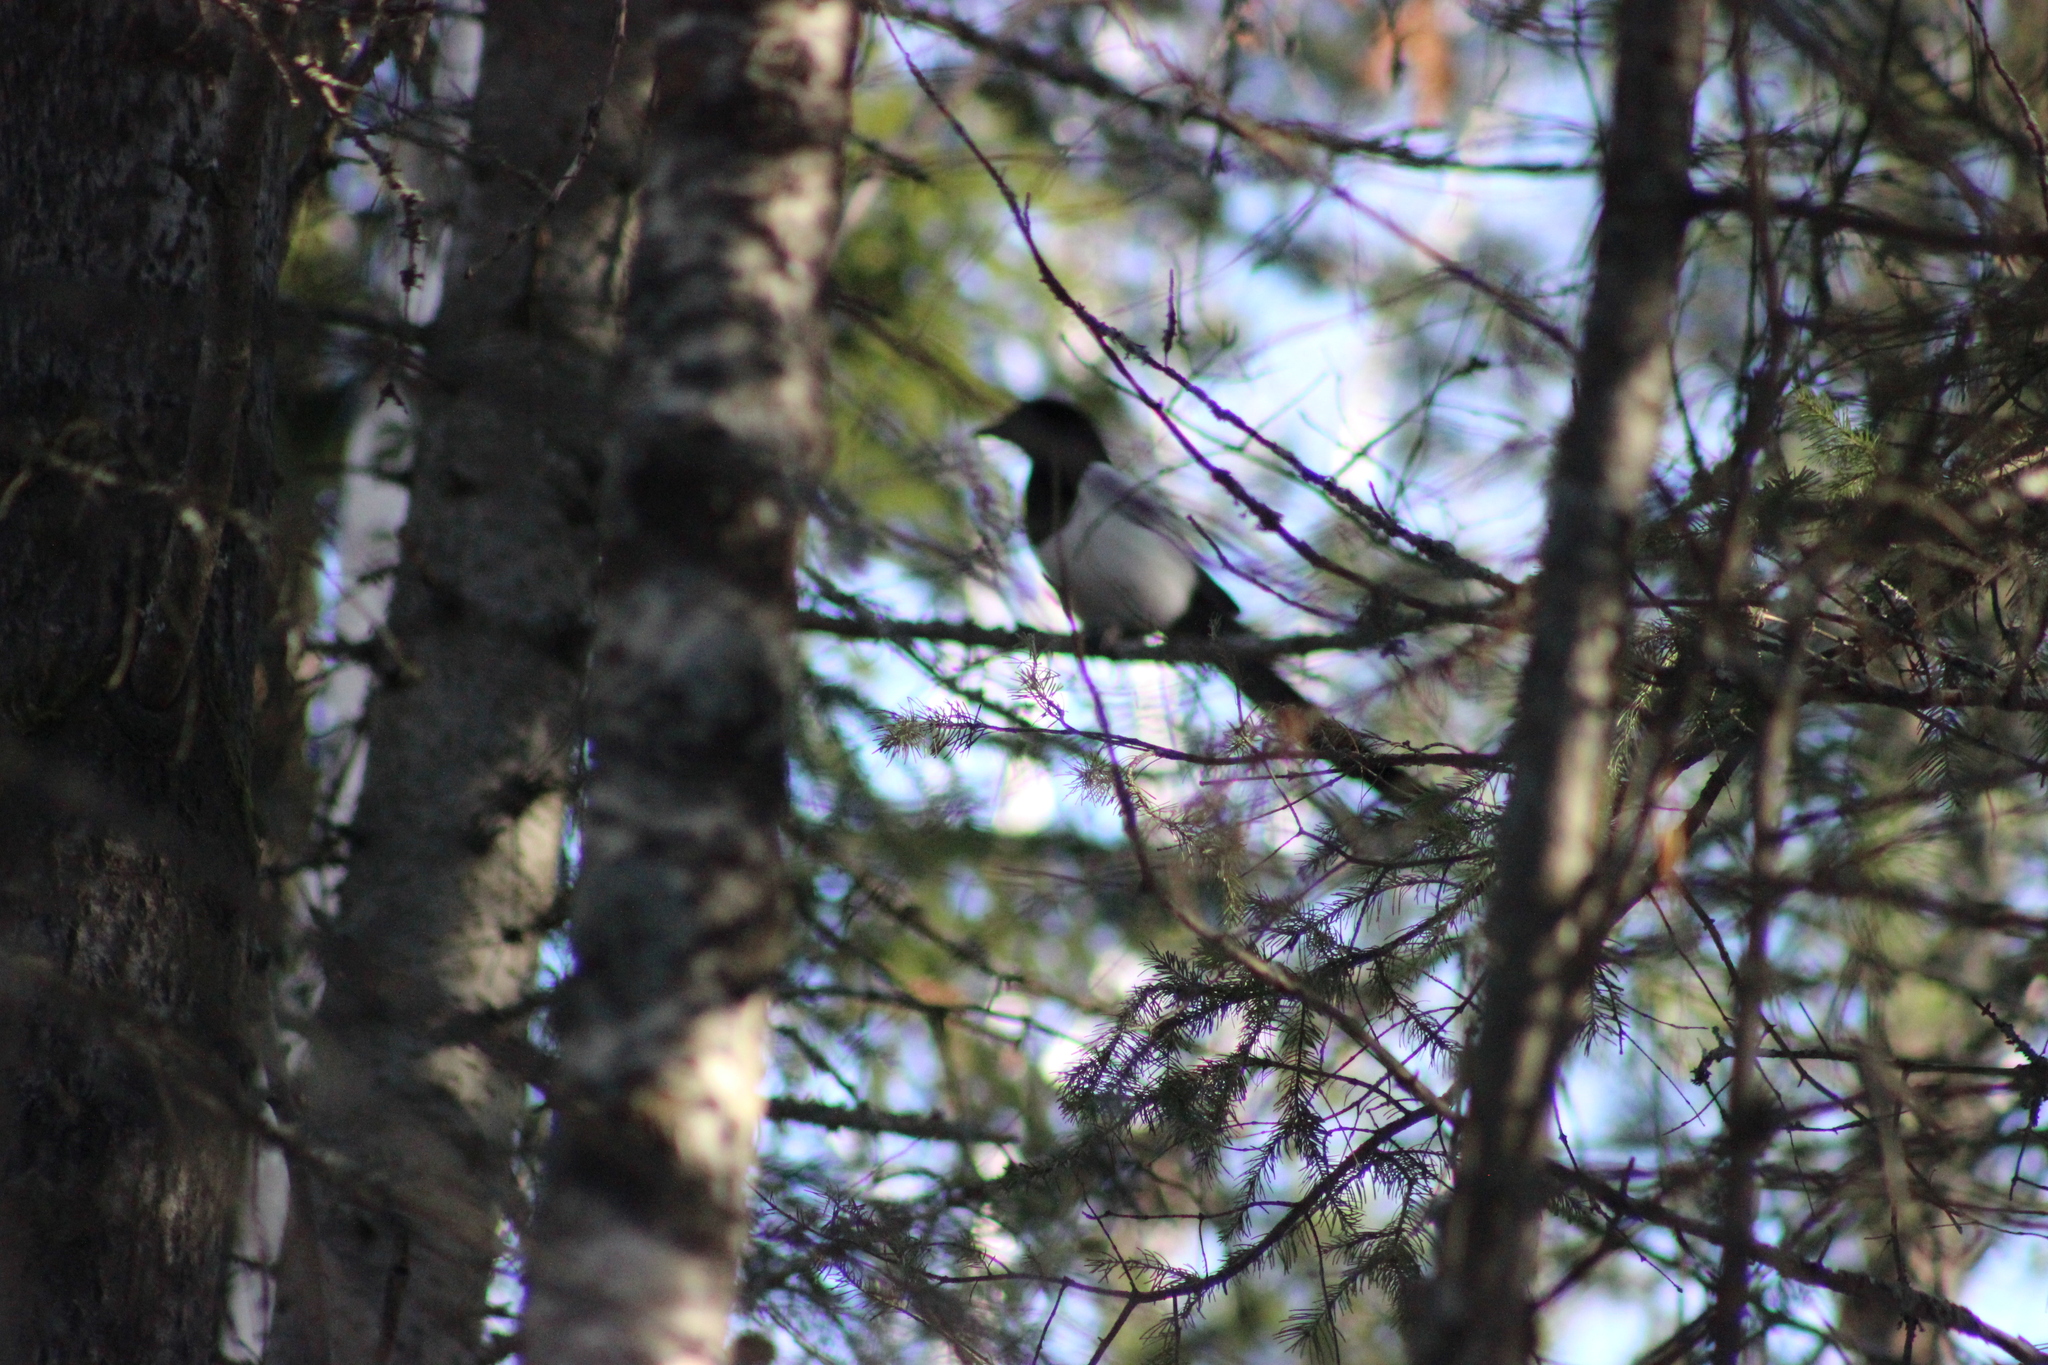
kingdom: Animalia
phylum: Chordata
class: Aves
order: Passeriformes
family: Corvidae
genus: Pica
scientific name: Pica pica
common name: Eurasian magpie
